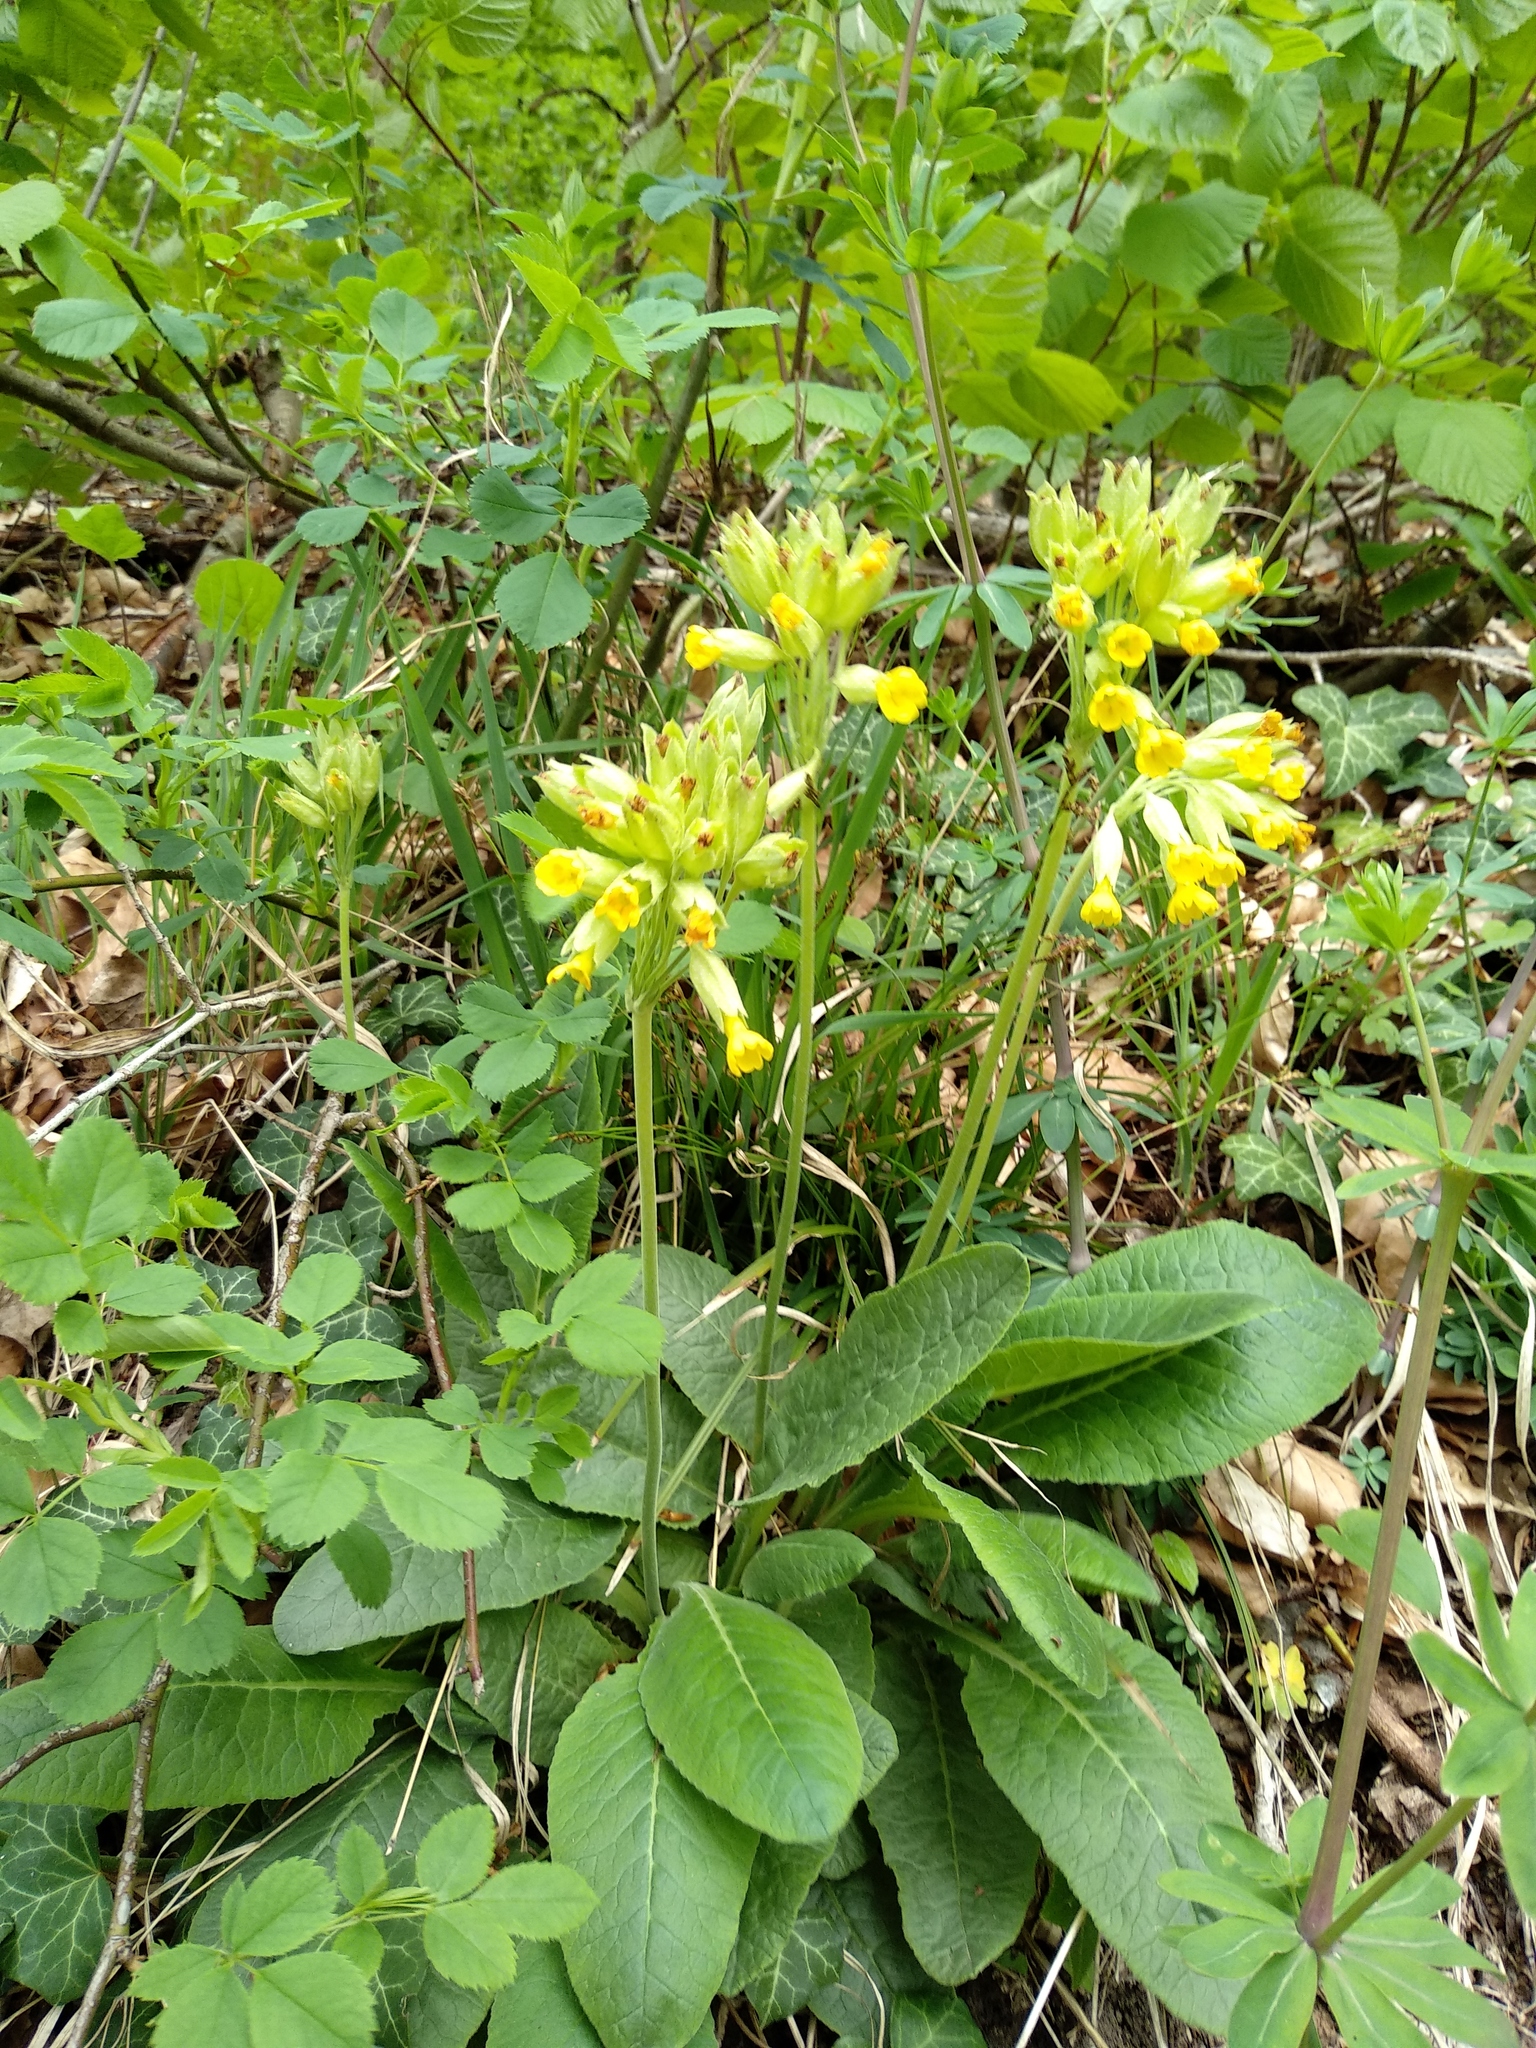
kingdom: Plantae
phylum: Tracheophyta
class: Magnoliopsida
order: Ericales
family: Primulaceae
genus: Primula
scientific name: Primula veris
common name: Cowslip
